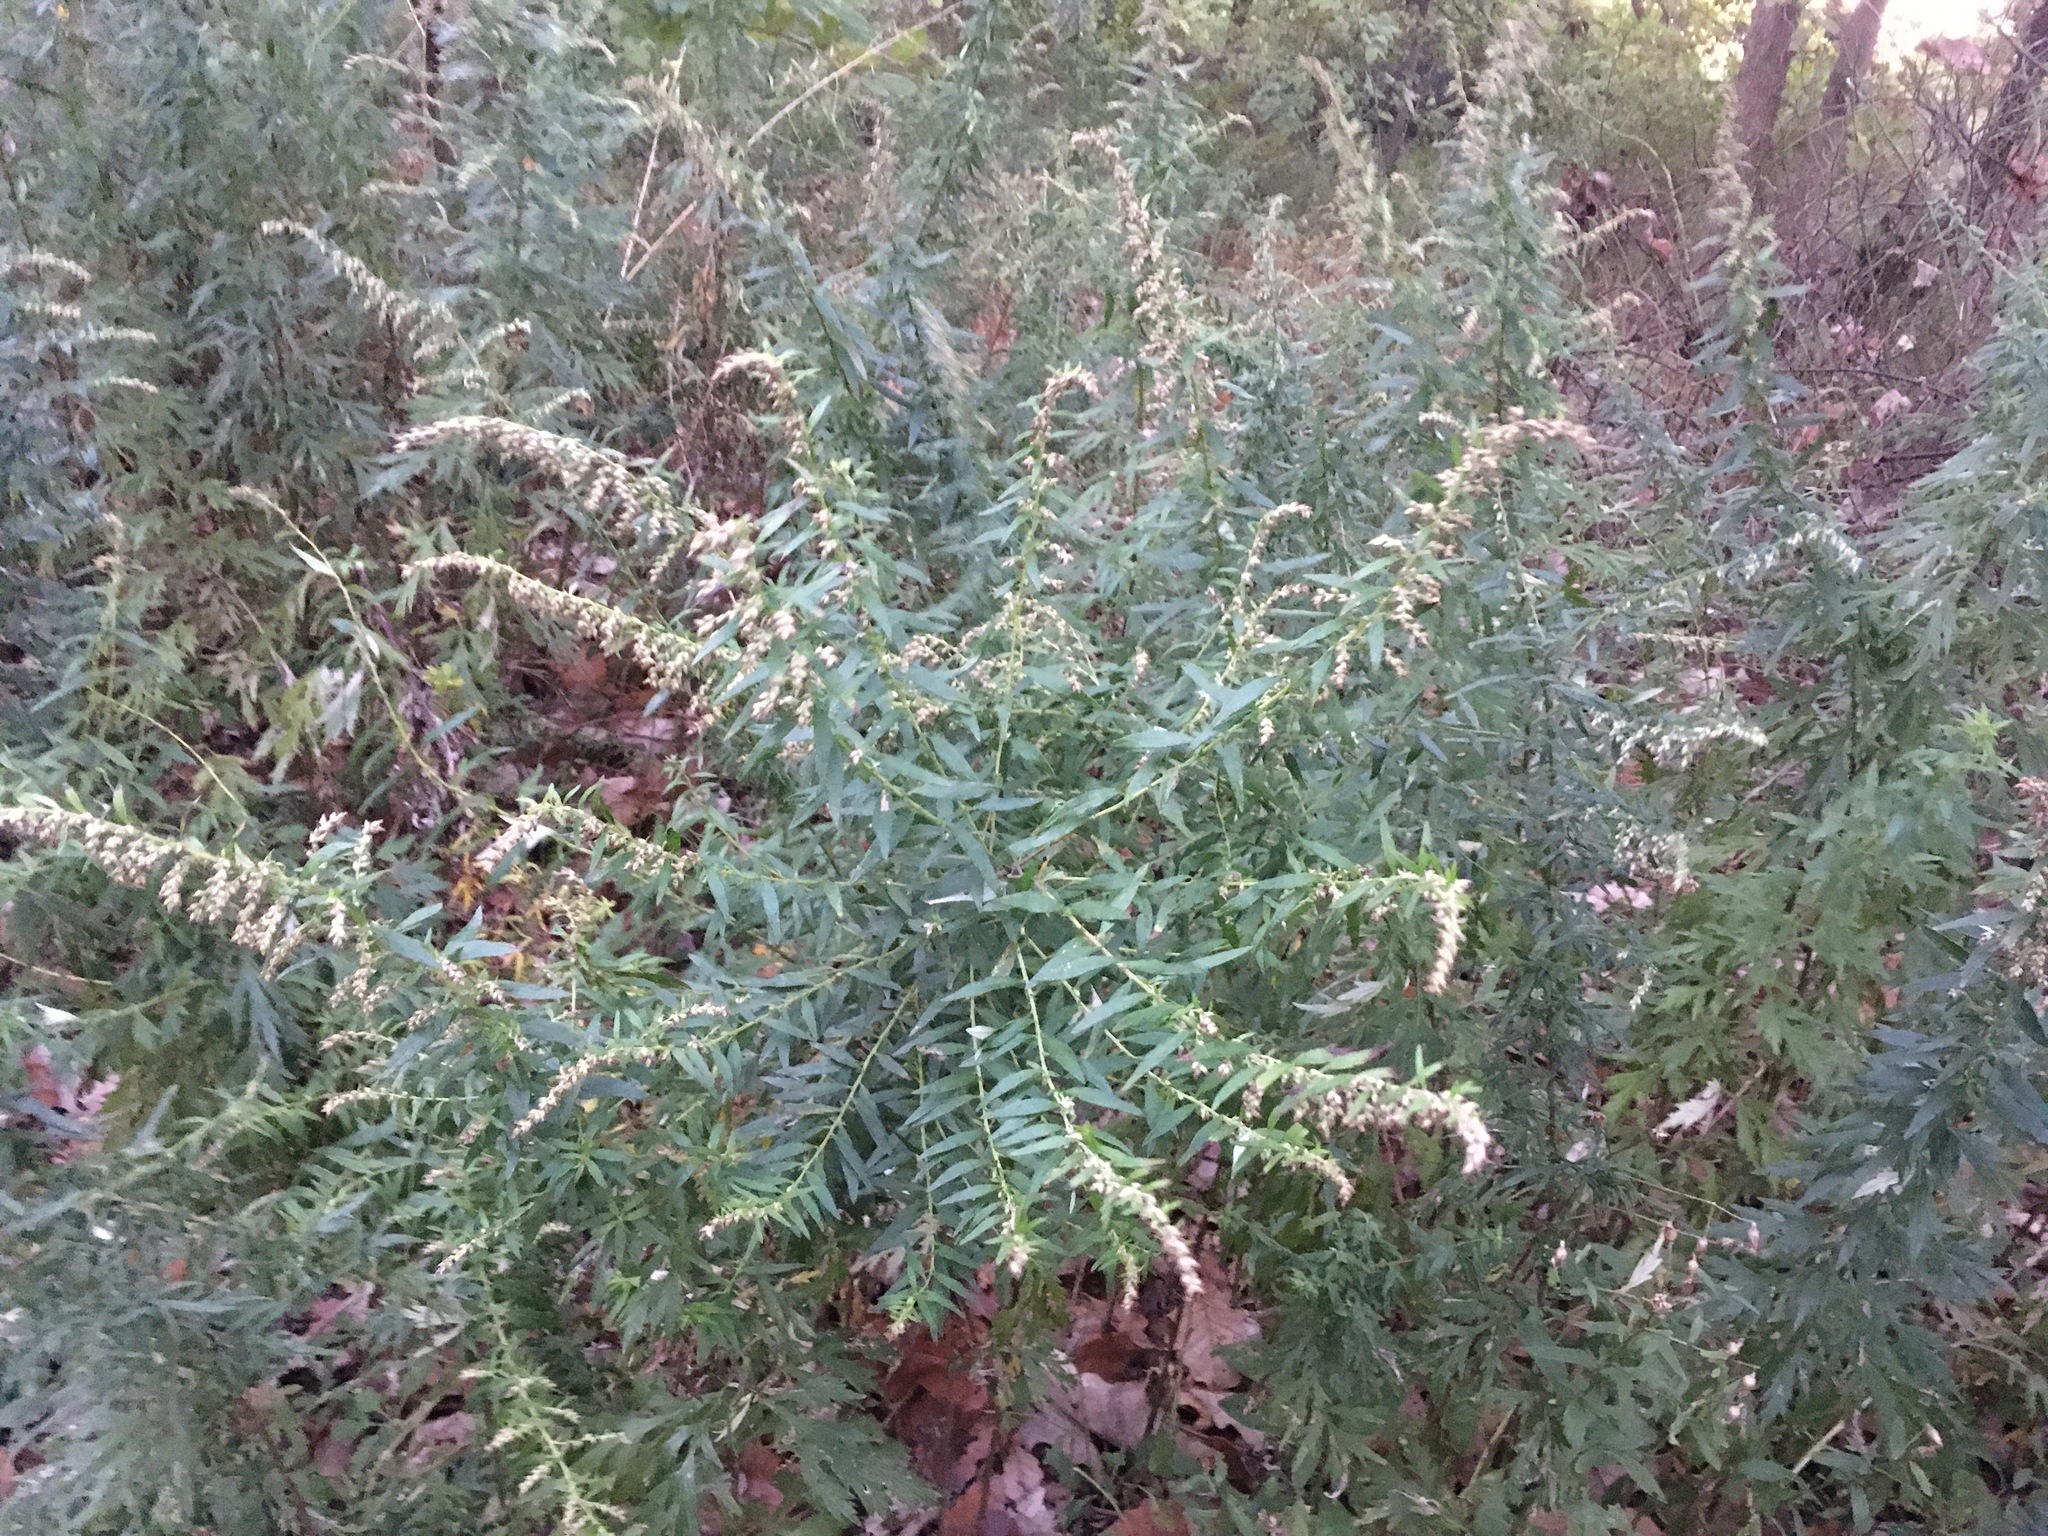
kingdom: Plantae
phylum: Tracheophyta
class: Magnoliopsida
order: Asterales
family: Asteraceae
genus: Artemisia
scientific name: Artemisia vulgaris
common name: Mugwort
